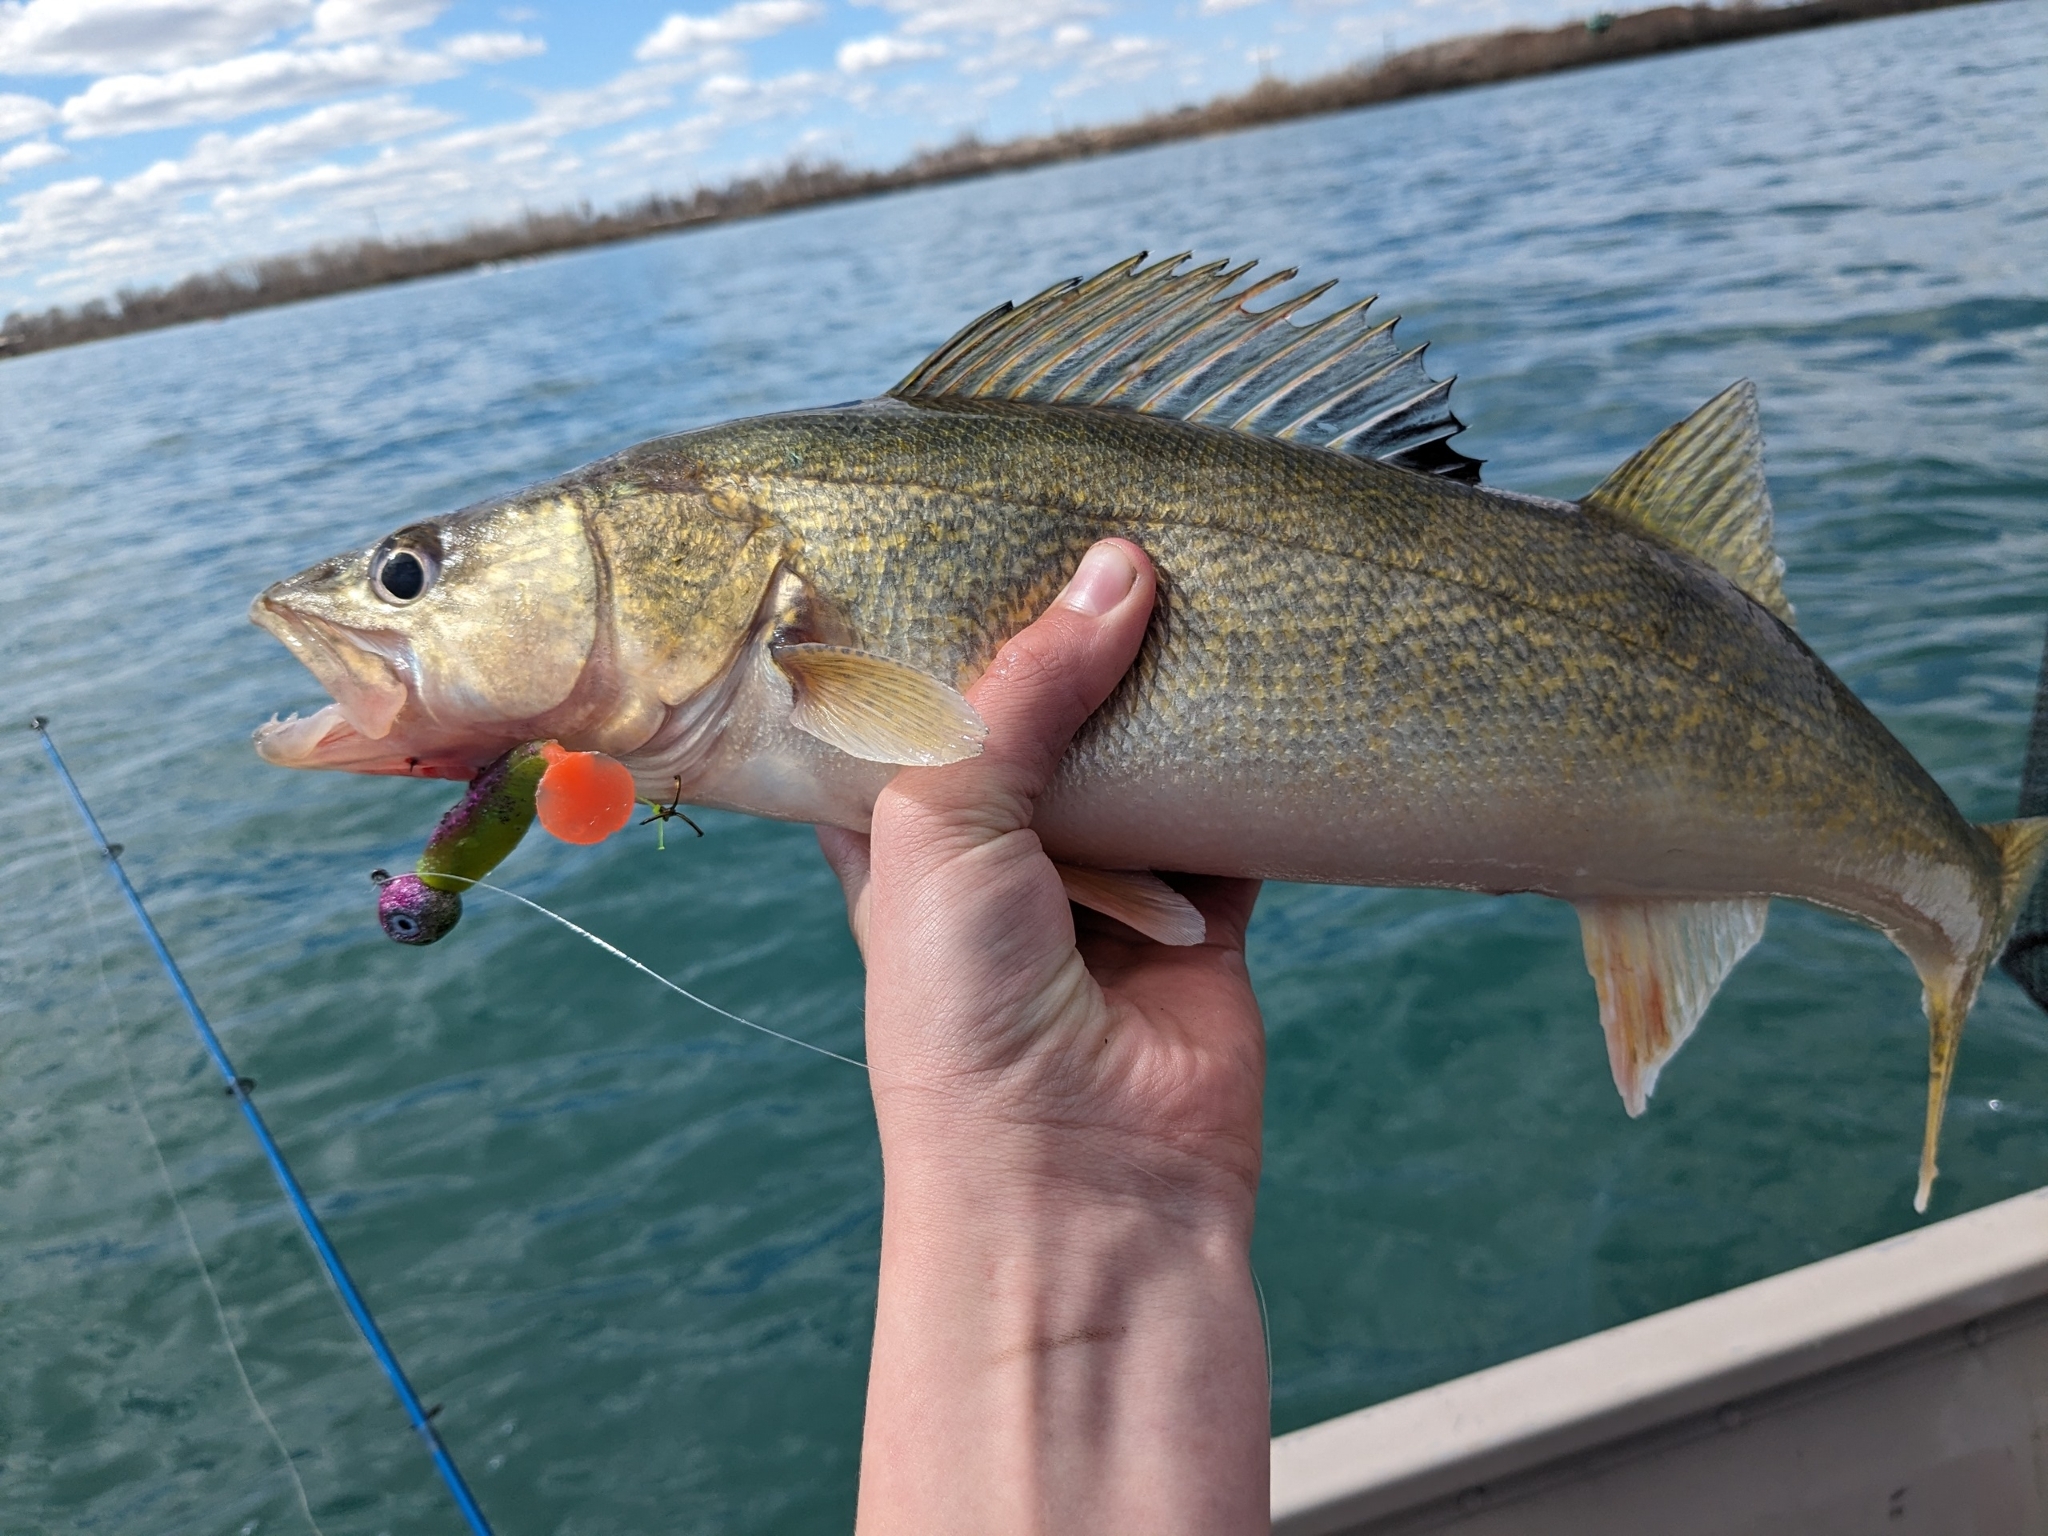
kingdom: Animalia
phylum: Chordata
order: Perciformes
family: Percidae
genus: Sander
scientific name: Sander vitreus
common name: Walleye
